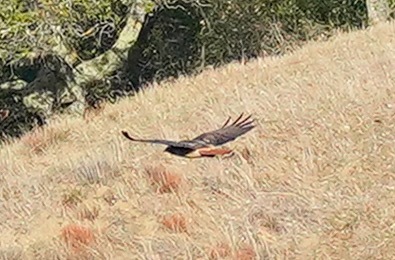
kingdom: Animalia
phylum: Chordata
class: Aves
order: Accipitriformes
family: Accipitridae
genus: Buteo
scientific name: Buteo jamaicensis
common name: Red-tailed hawk
